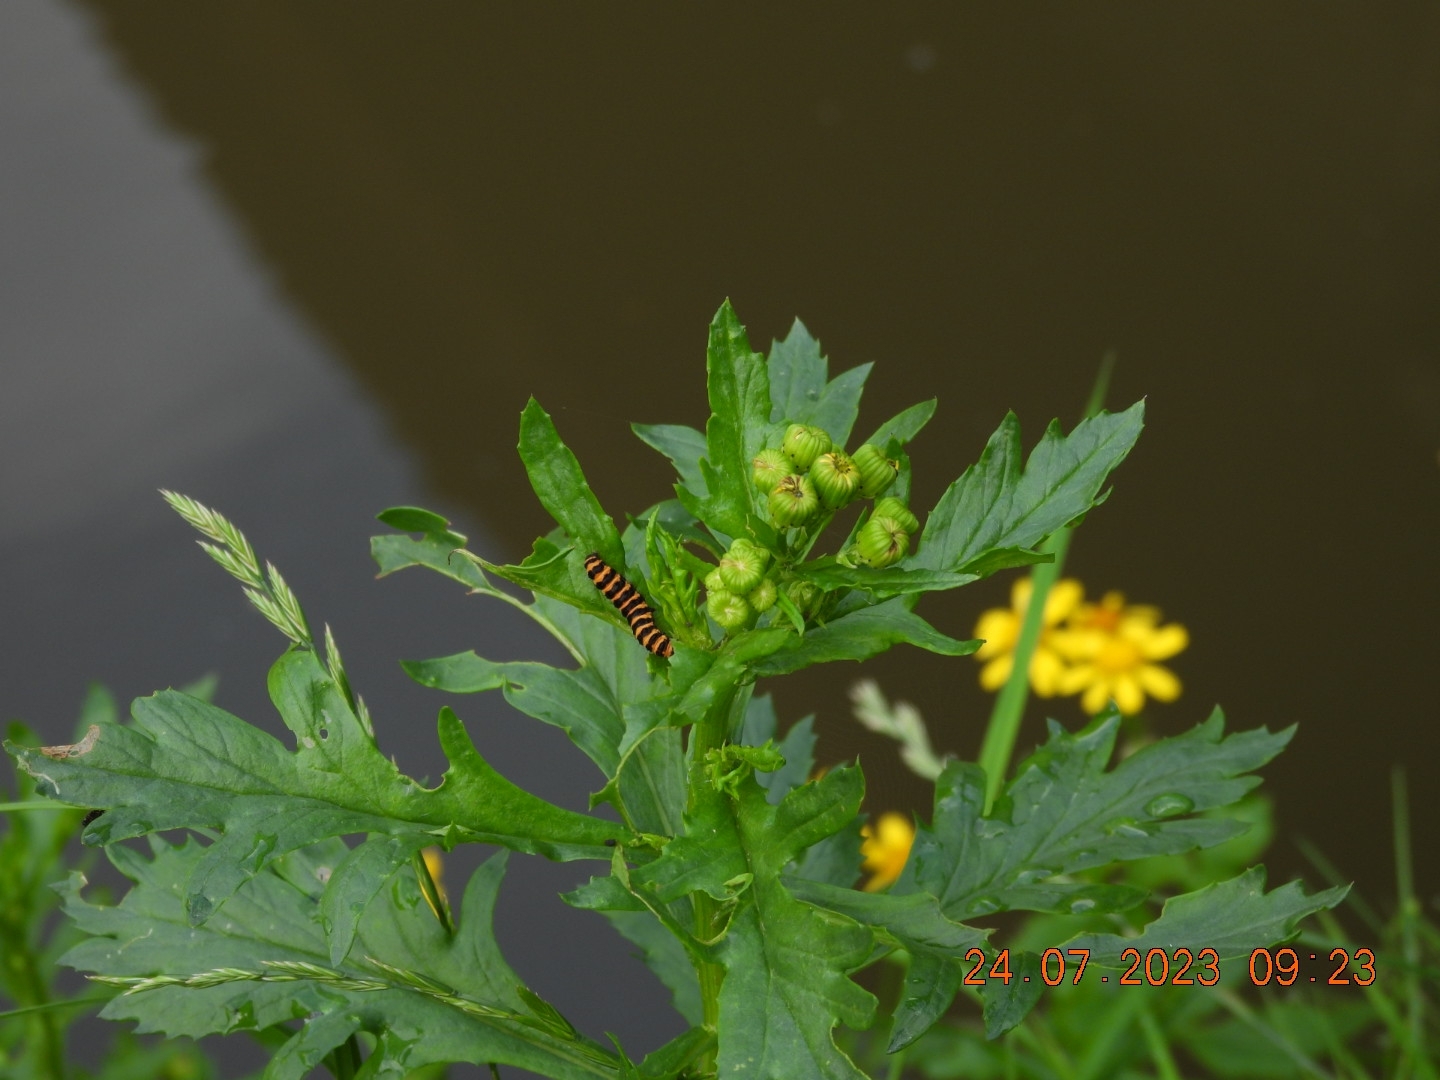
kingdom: Animalia
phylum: Arthropoda
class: Insecta
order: Lepidoptera
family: Erebidae
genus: Tyria
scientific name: Tyria jacobaeae
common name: Cinnabar
